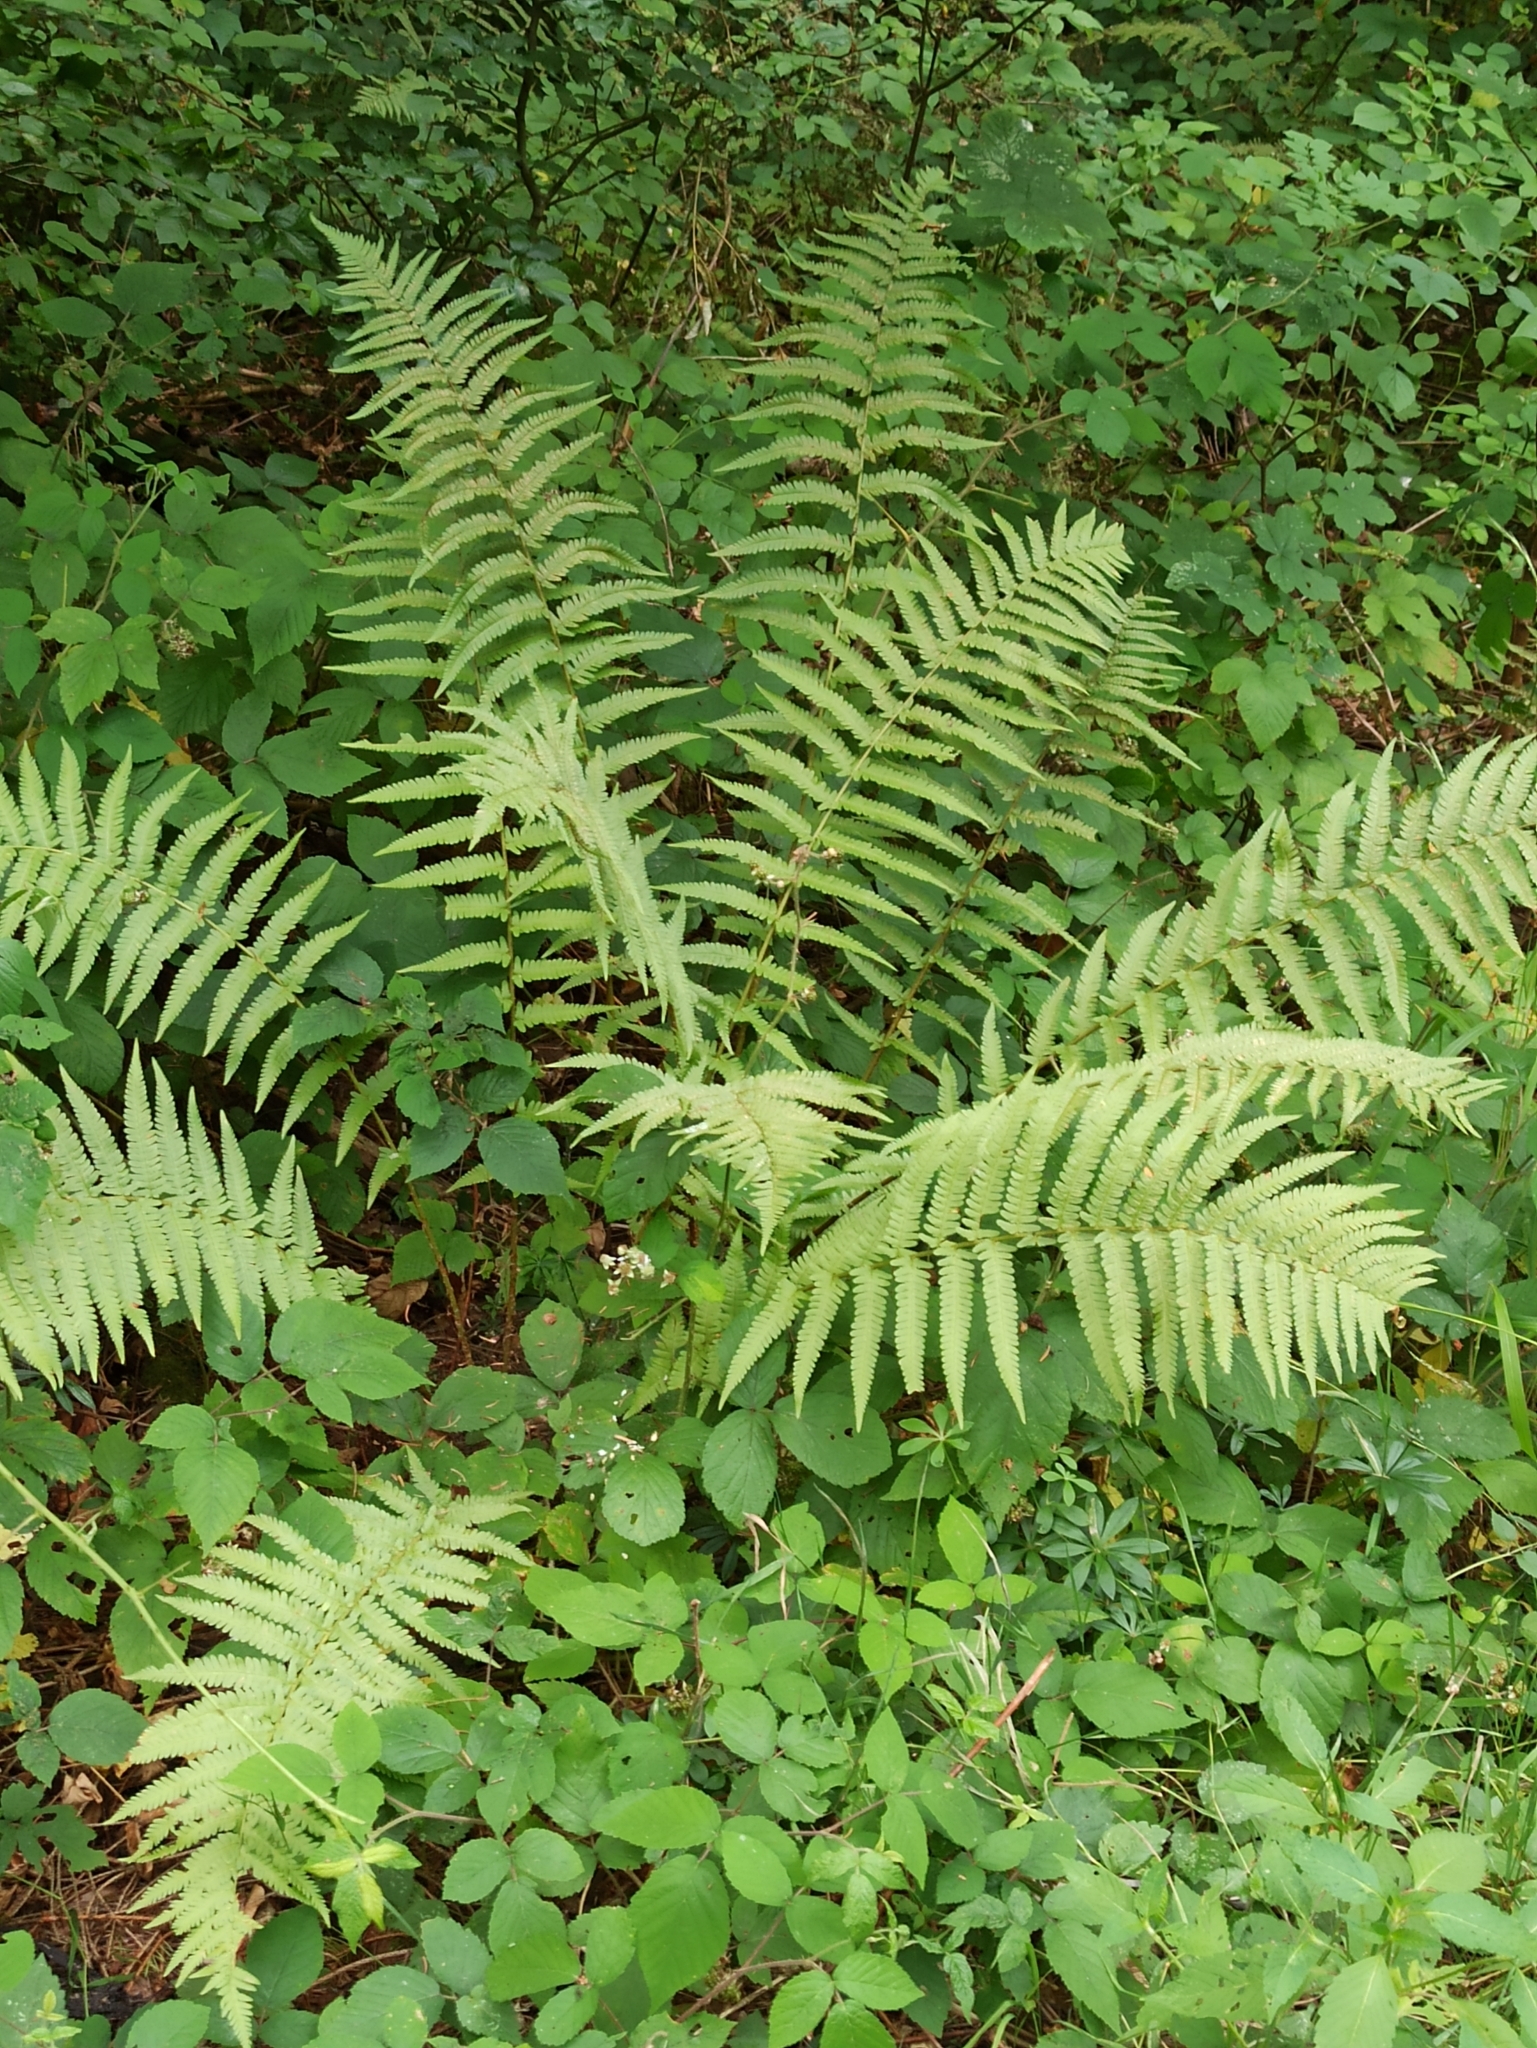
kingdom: Plantae
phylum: Tracheophyta
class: Polypodiopsida
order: Polypodiales
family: Dryopteridaceae
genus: Dryopteris
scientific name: Dryopteris filix-mas
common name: Male fern
